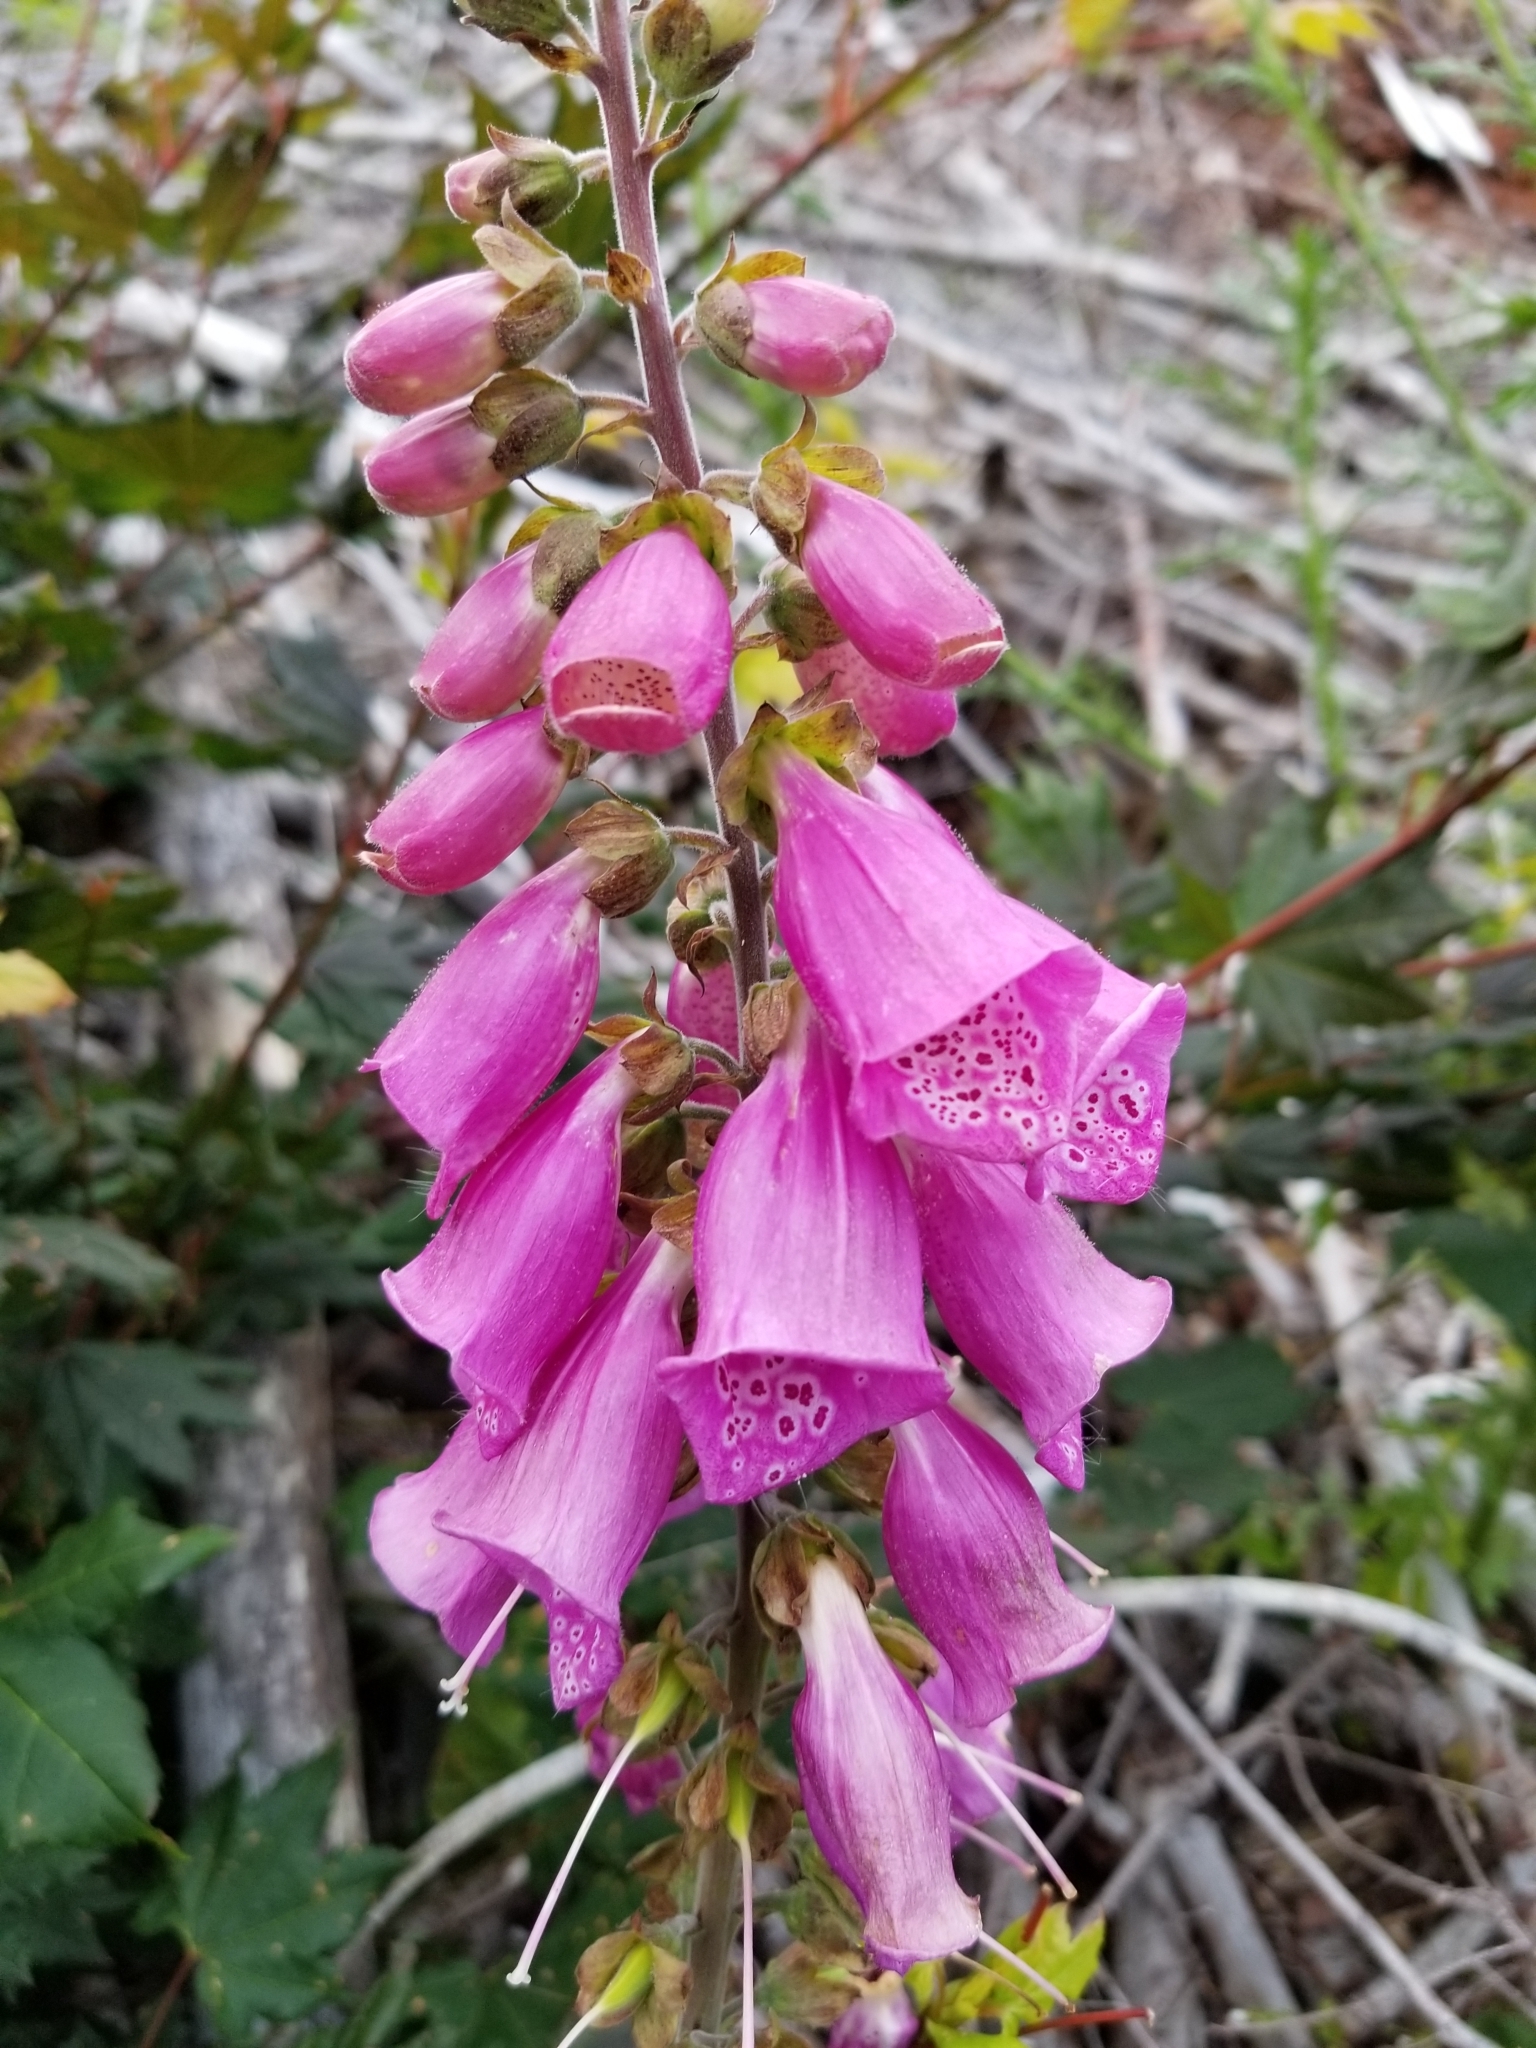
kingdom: Plantae
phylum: Tracheophyta
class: Magnoliopsida
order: Lamiales
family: Plantaginaceae
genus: Digitalis
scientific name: Digitalis purpurea
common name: Foxglove
